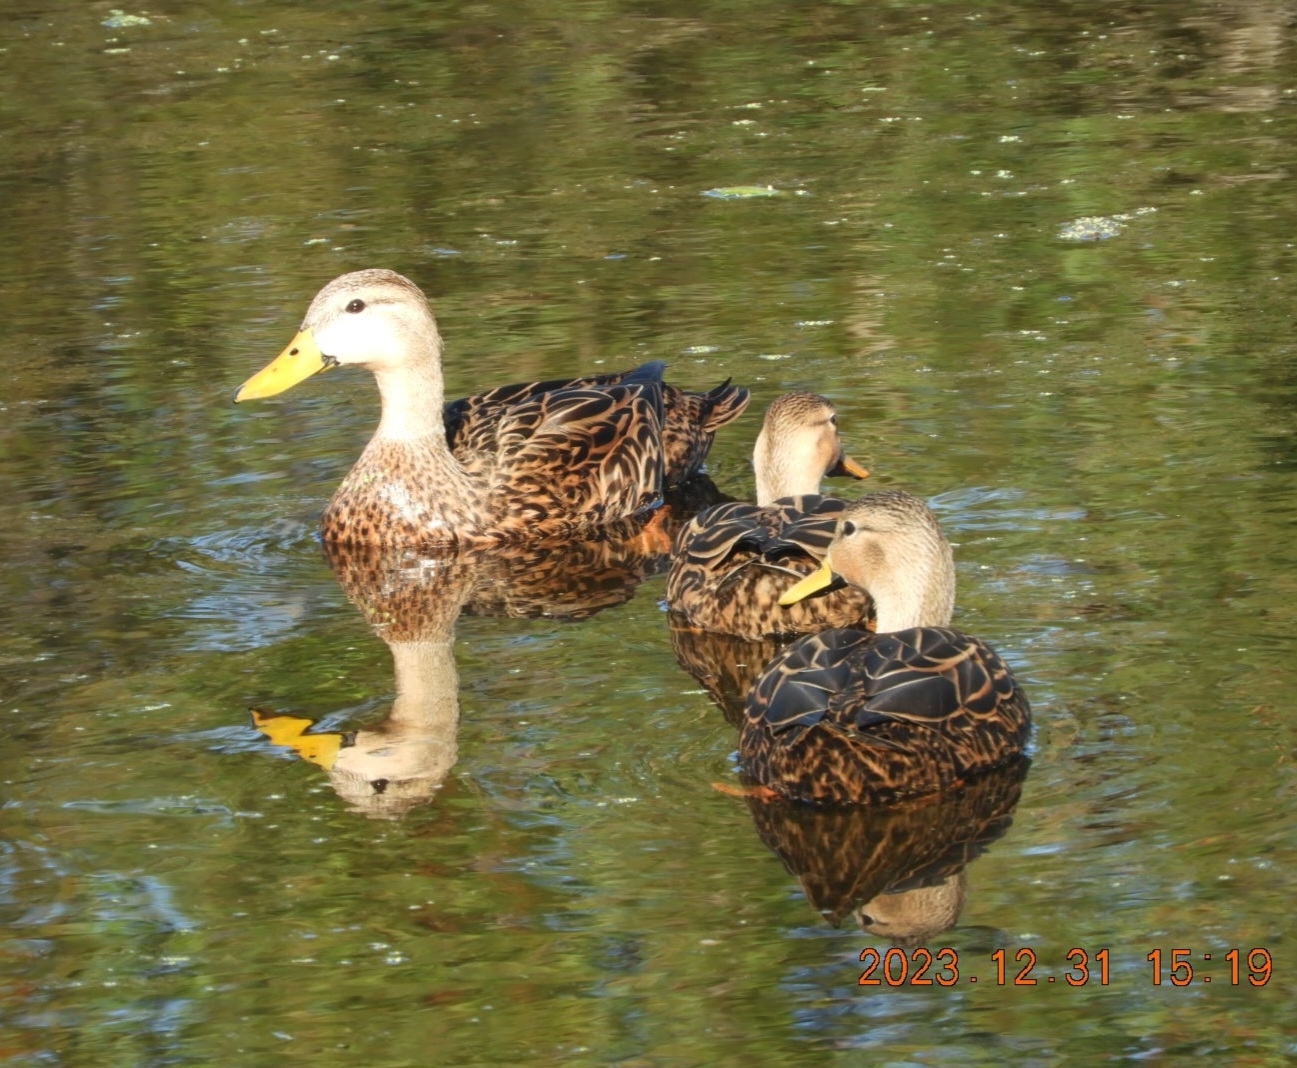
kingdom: Animalia
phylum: Chordata
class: Aves
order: Anseriformes
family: Anatidae
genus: Anas
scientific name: Anas fulvigula
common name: Mottled duck
